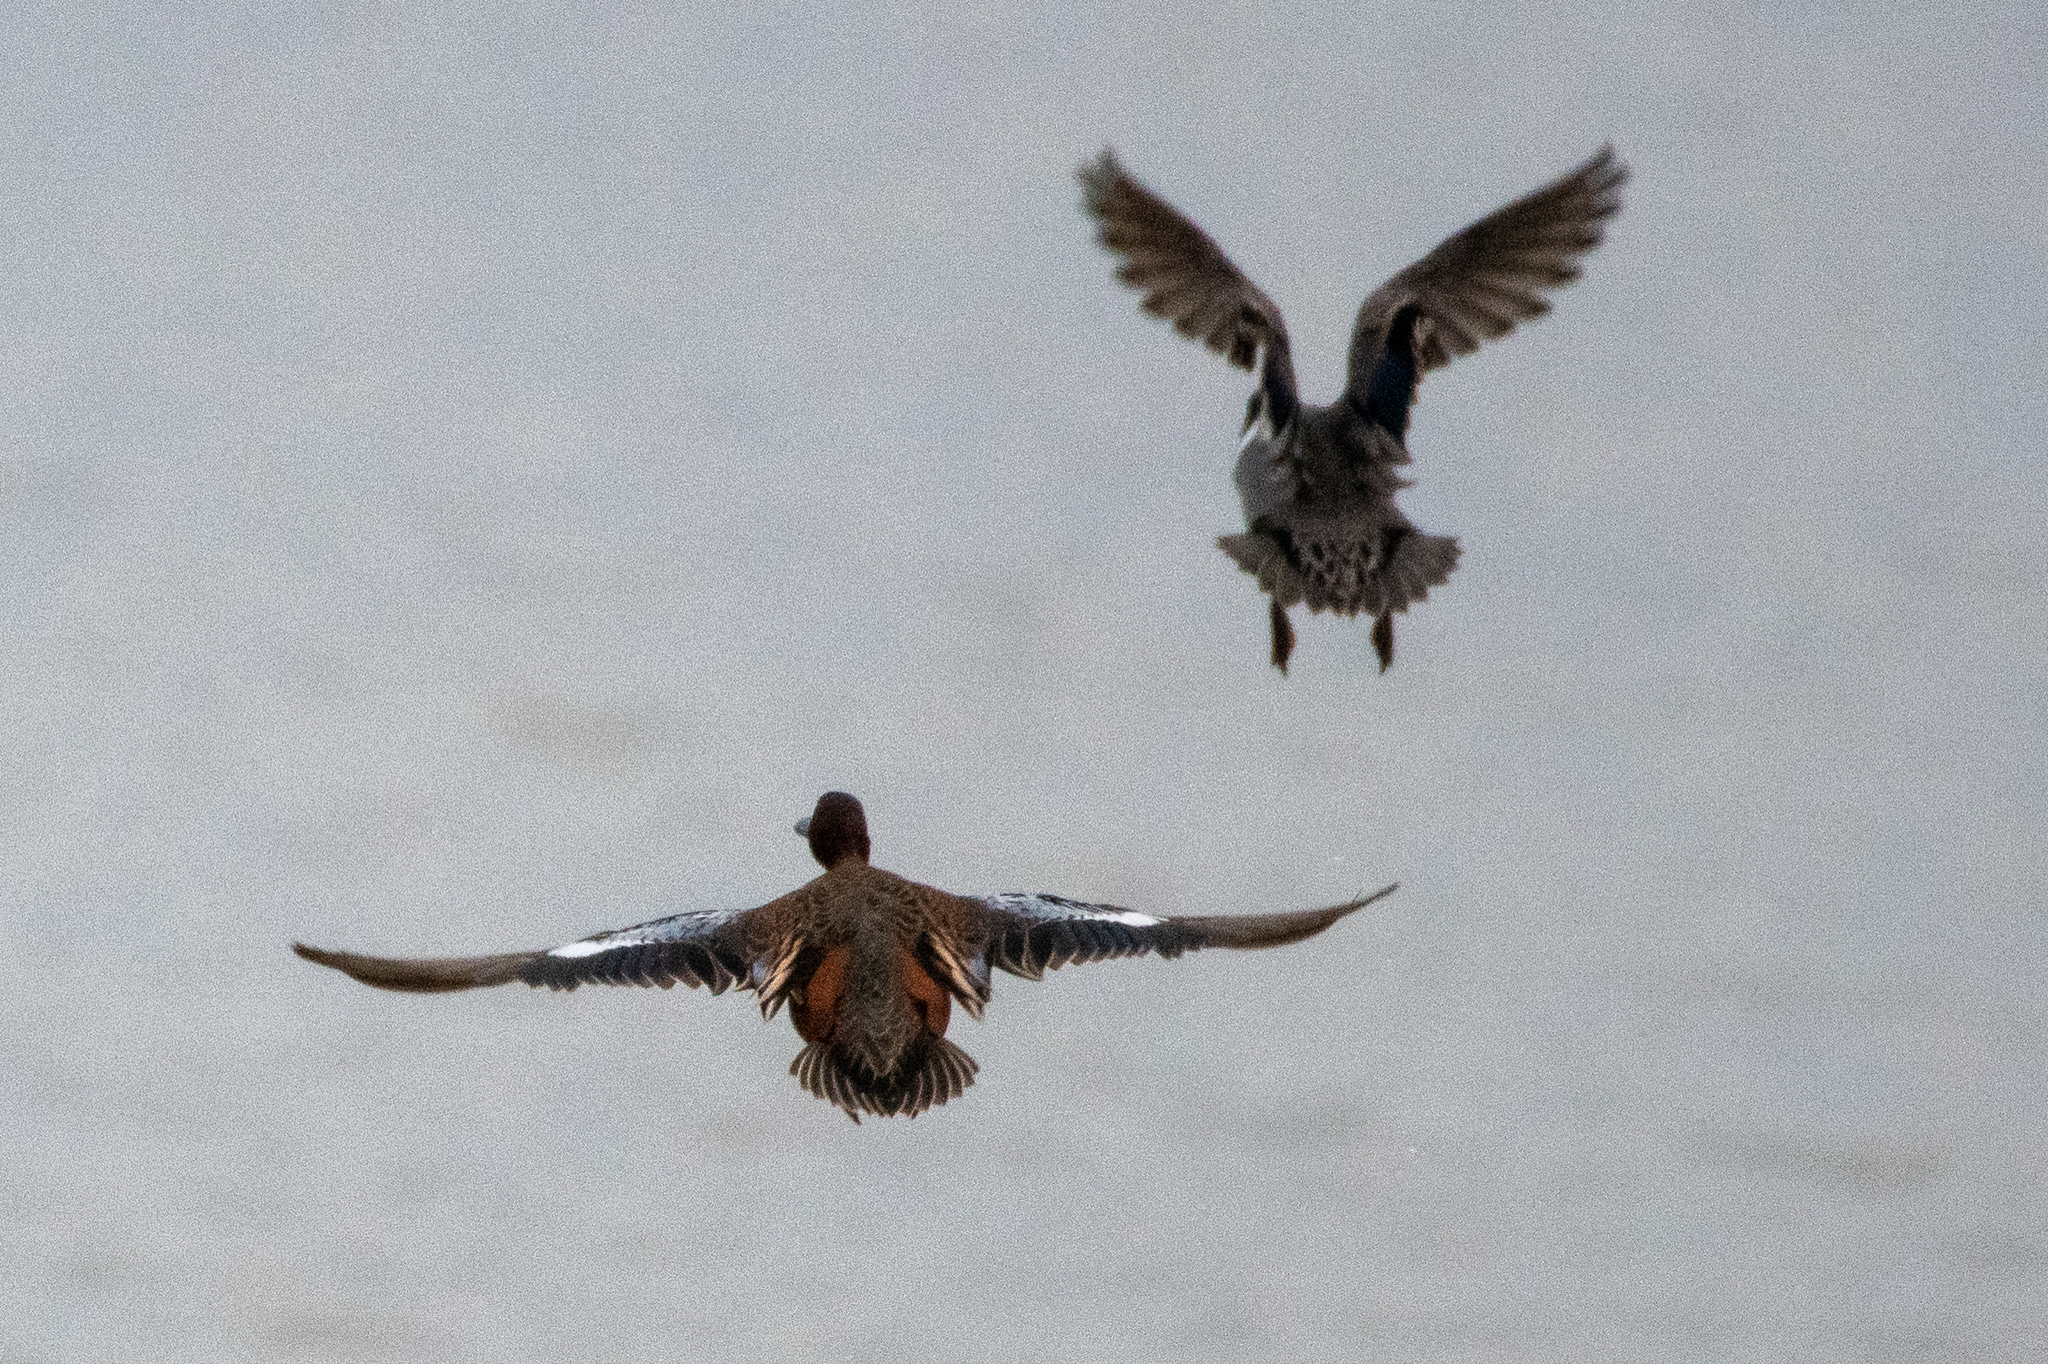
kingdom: Animalia
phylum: Chordata
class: Aves
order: Anseriformes
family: Anatidae
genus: Spatula
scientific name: Spatula cyanoptera
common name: Cinnamon teal
